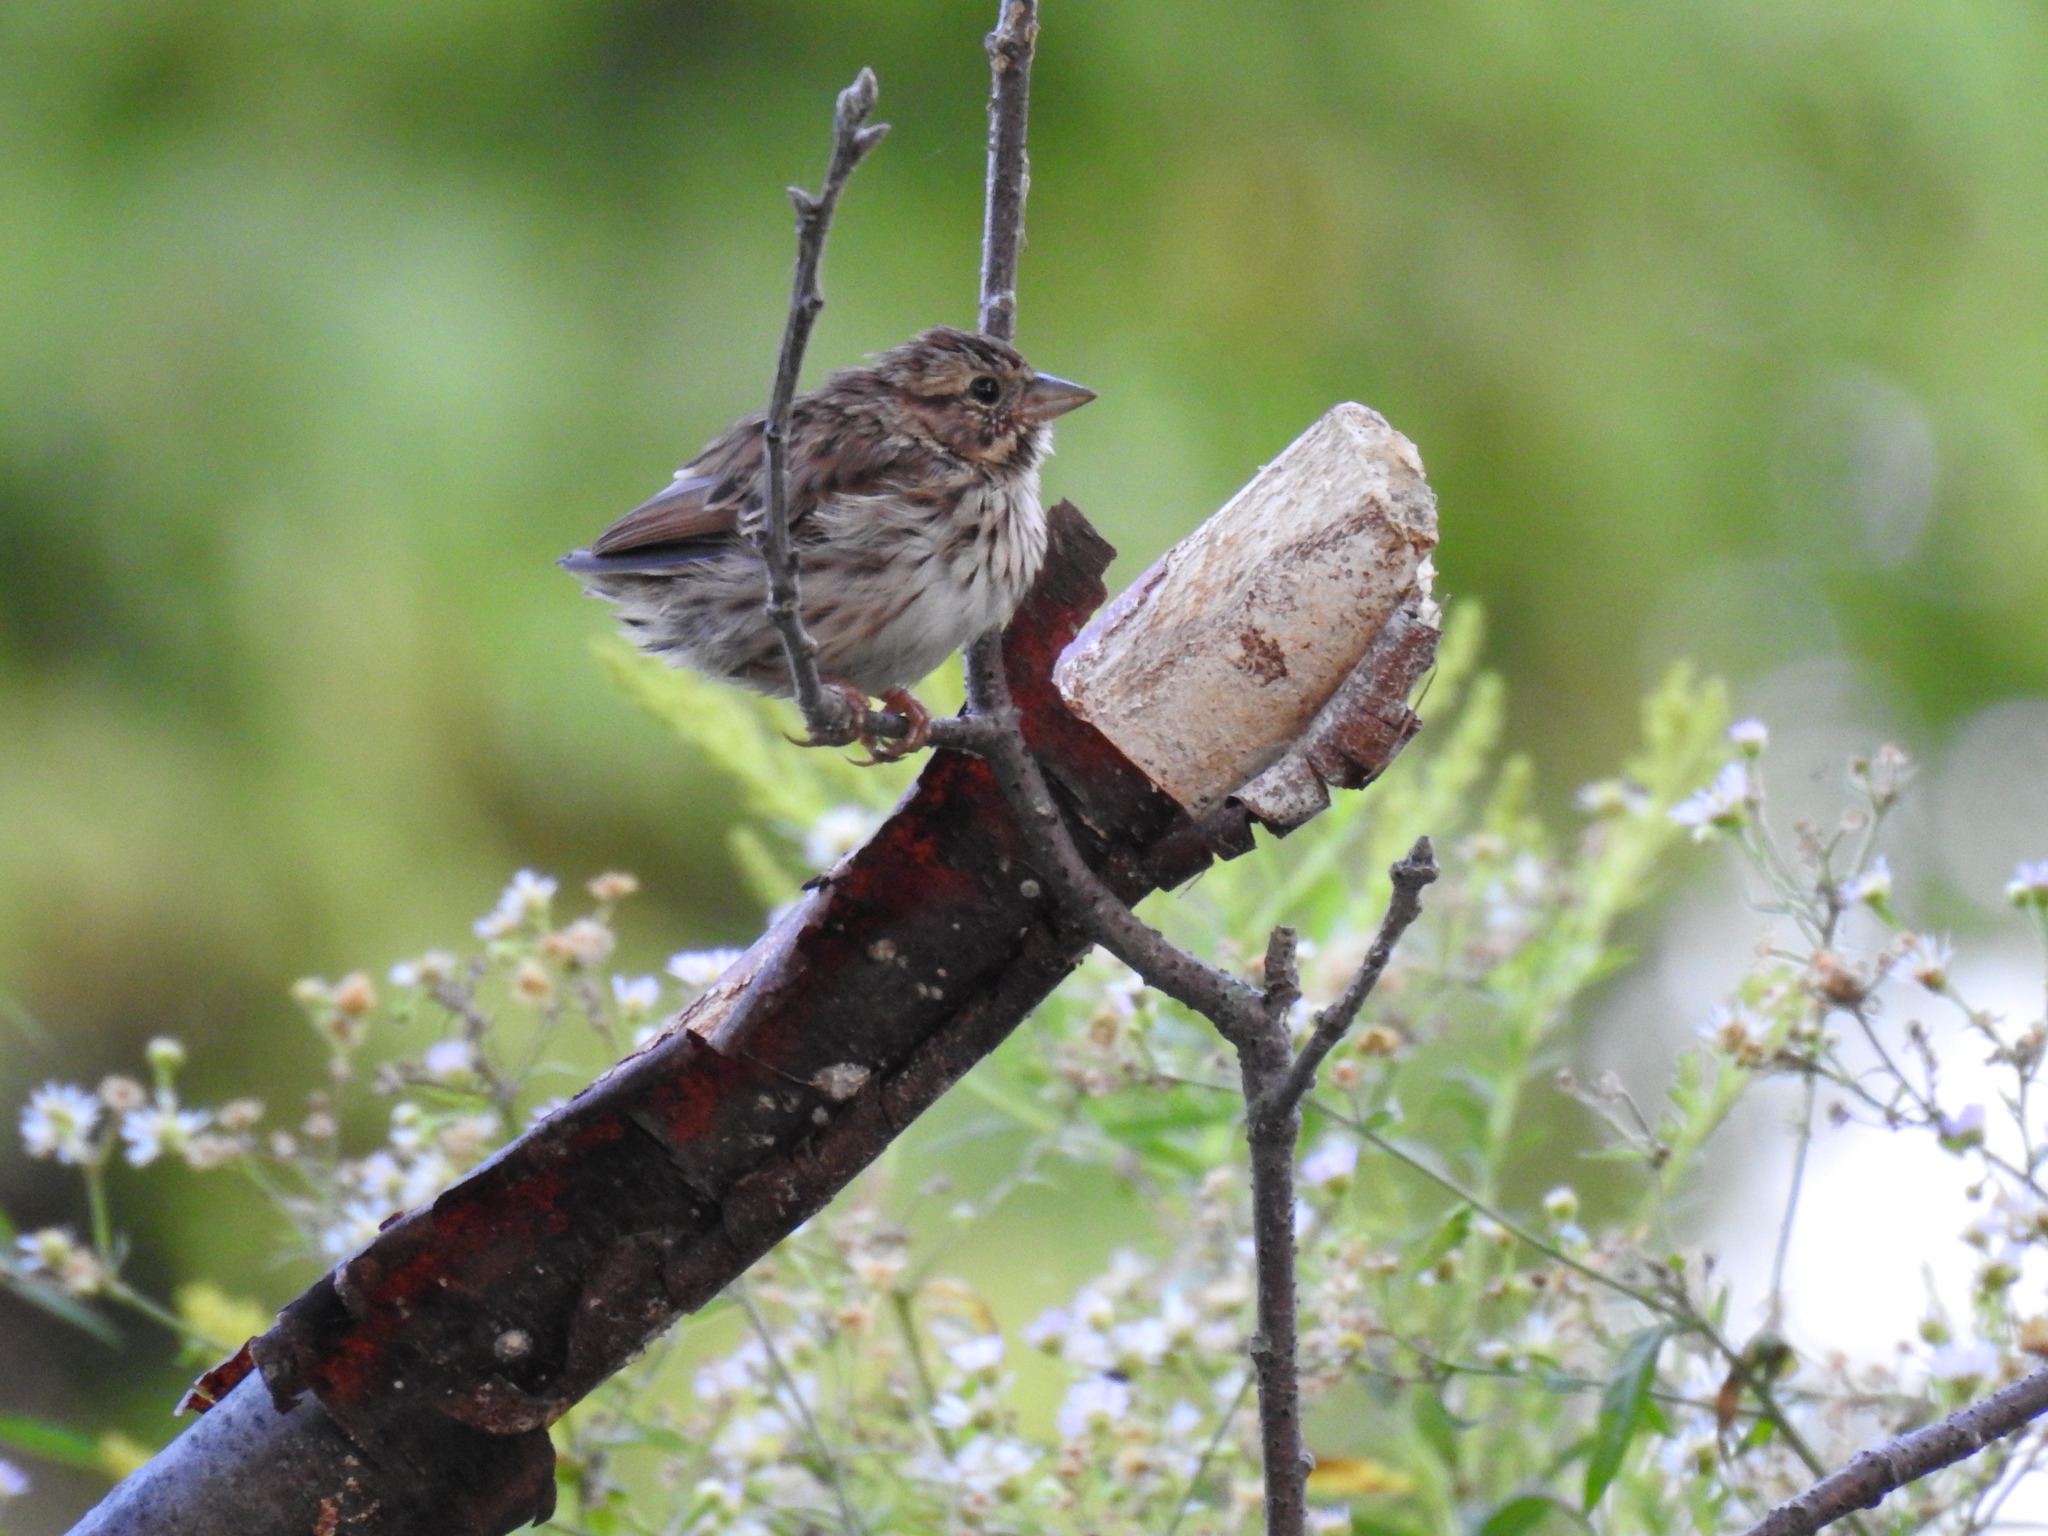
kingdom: Animalia
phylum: Chordata
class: Aves
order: Passeriformes
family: Passerellidae
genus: Melospiza
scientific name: Melospiza melodia
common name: Song sparrow
